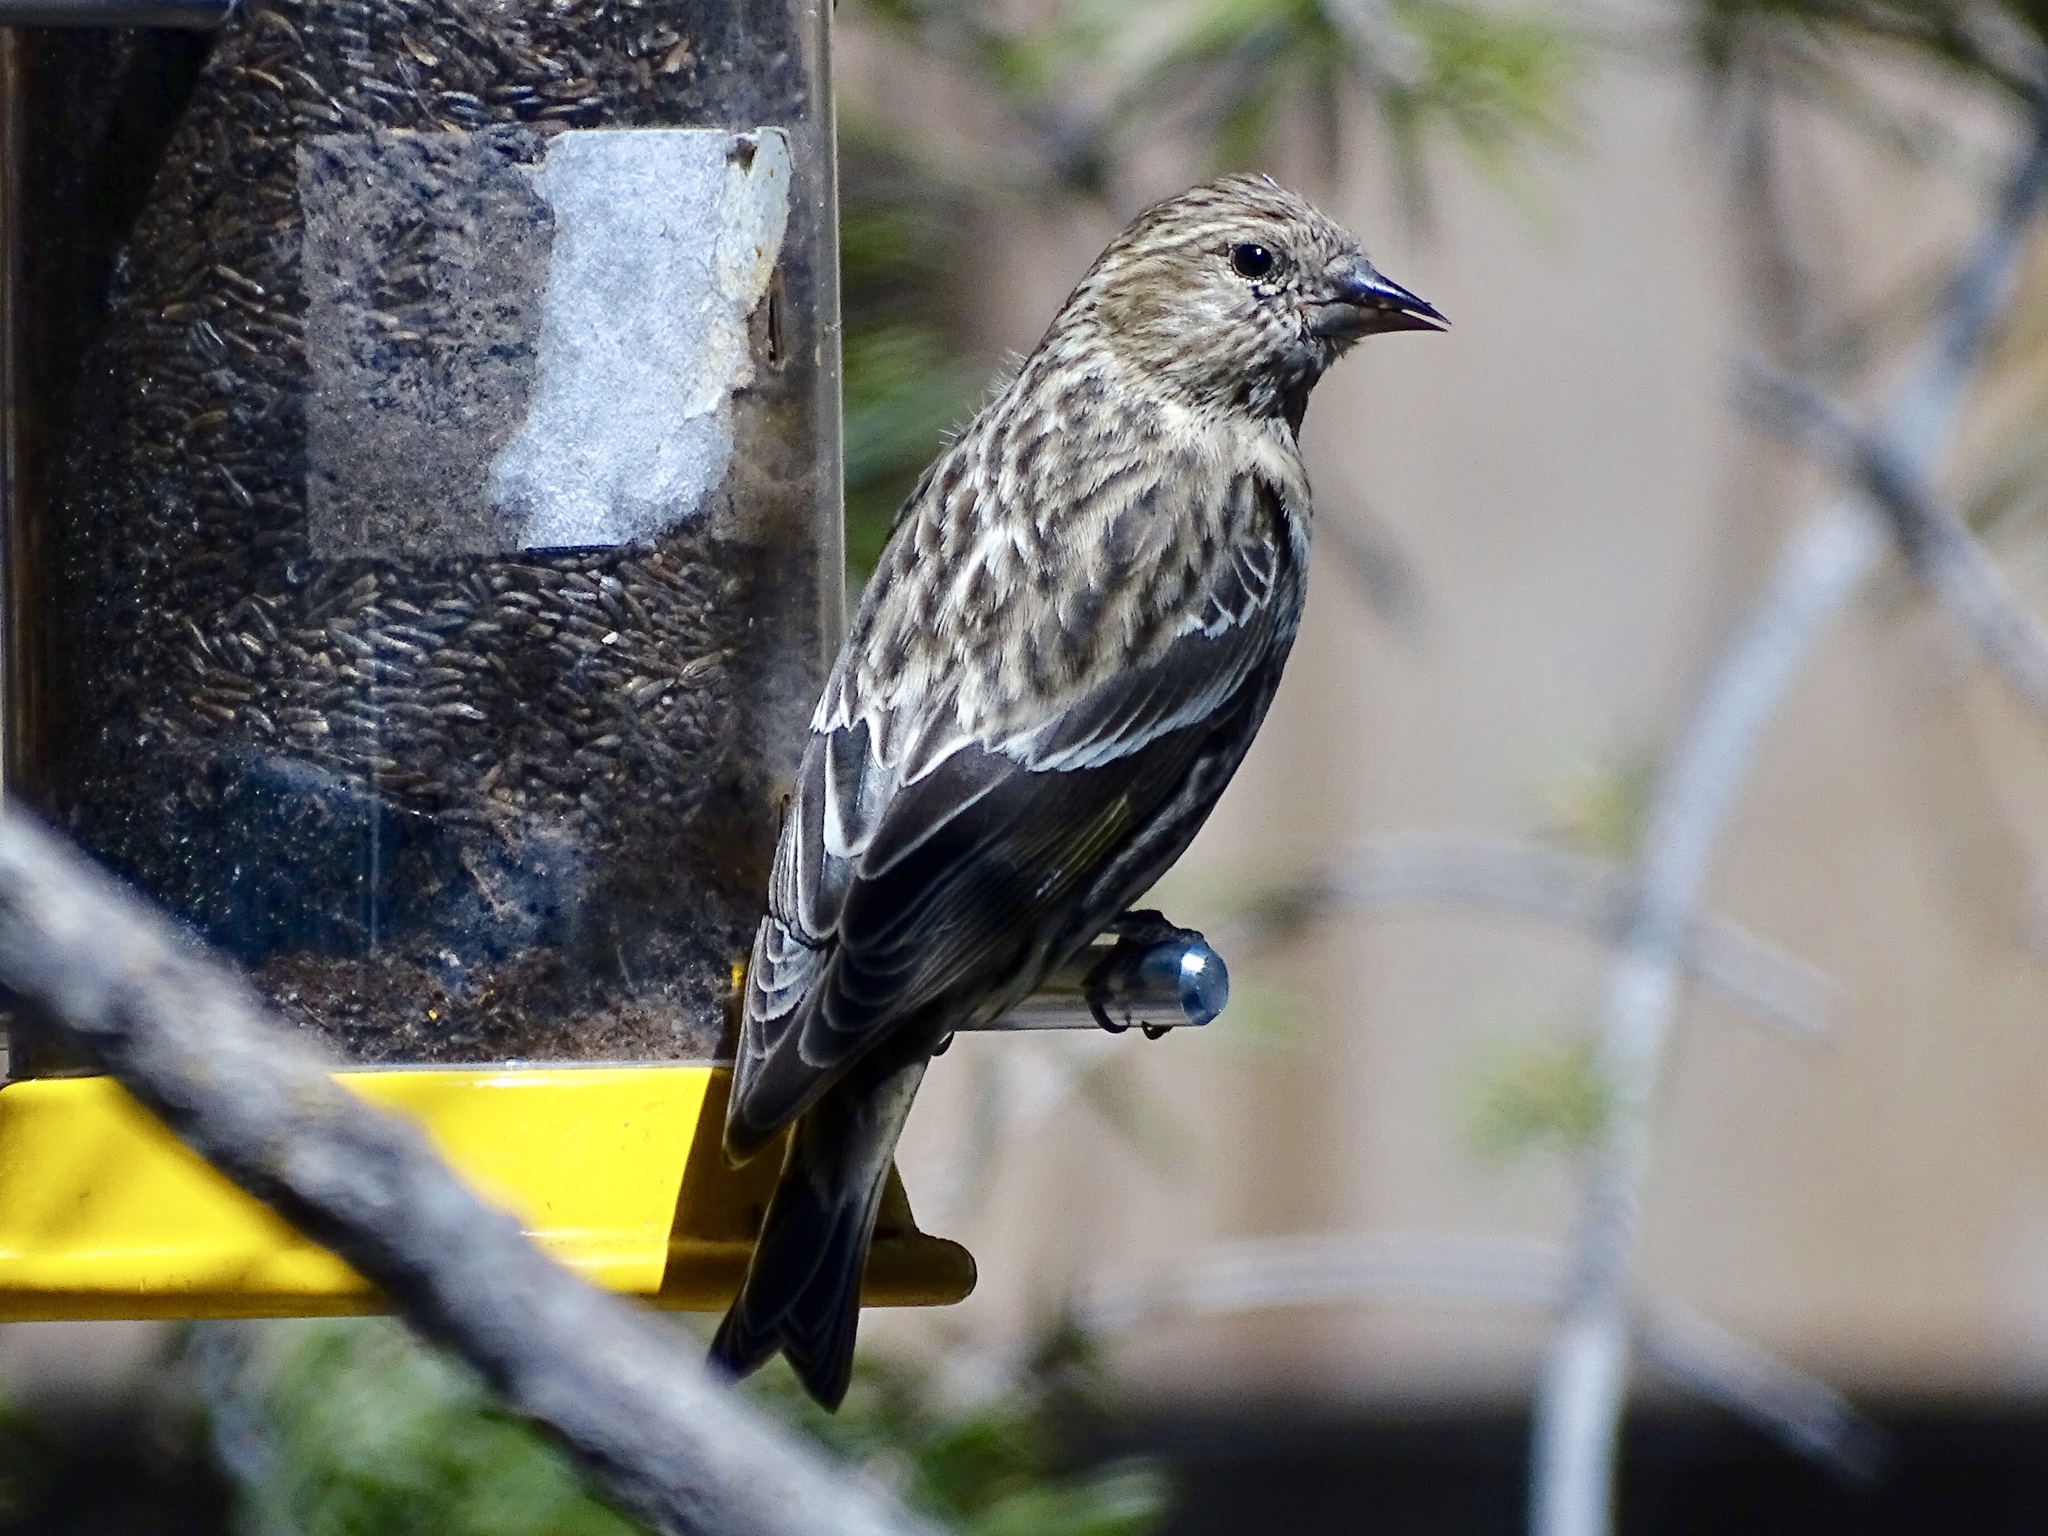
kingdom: Animalia
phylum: Chordata
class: Aves
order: Passeriformes
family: Fringillidae
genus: Spinus
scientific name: Spinus pinus
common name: Pine siskin
